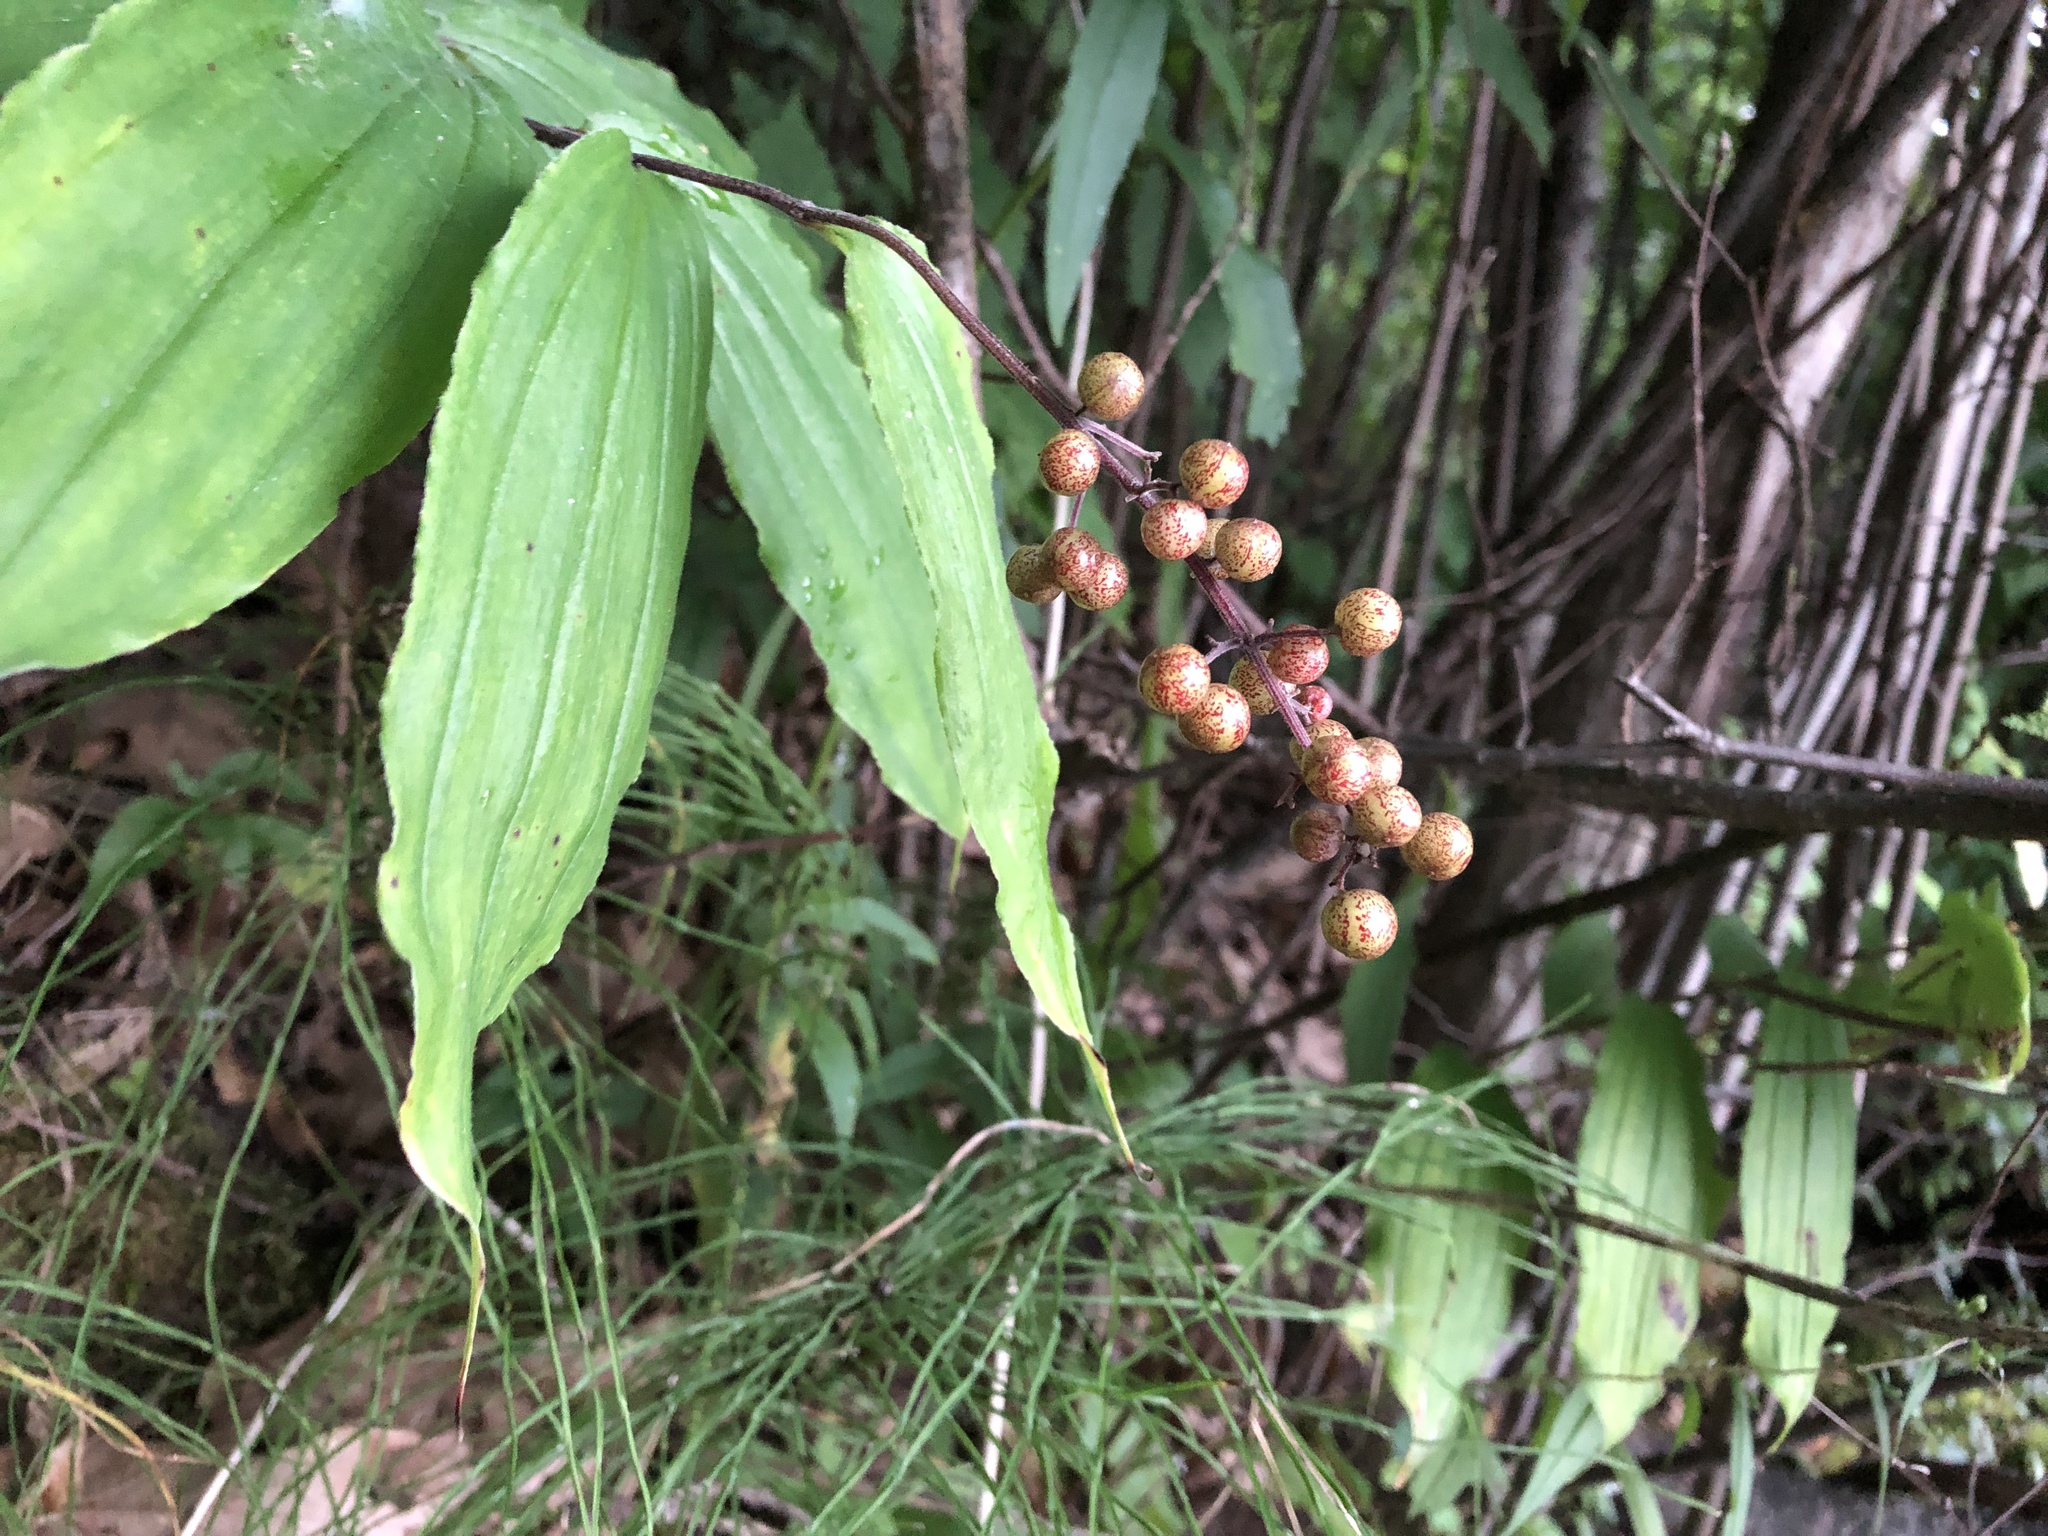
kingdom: Plantae
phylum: Tracheophyta
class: Liliopsida
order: Asparagales
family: Asparagaceae
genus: Maianthemum
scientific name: Maianthemum racemosum
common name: False spikenard
